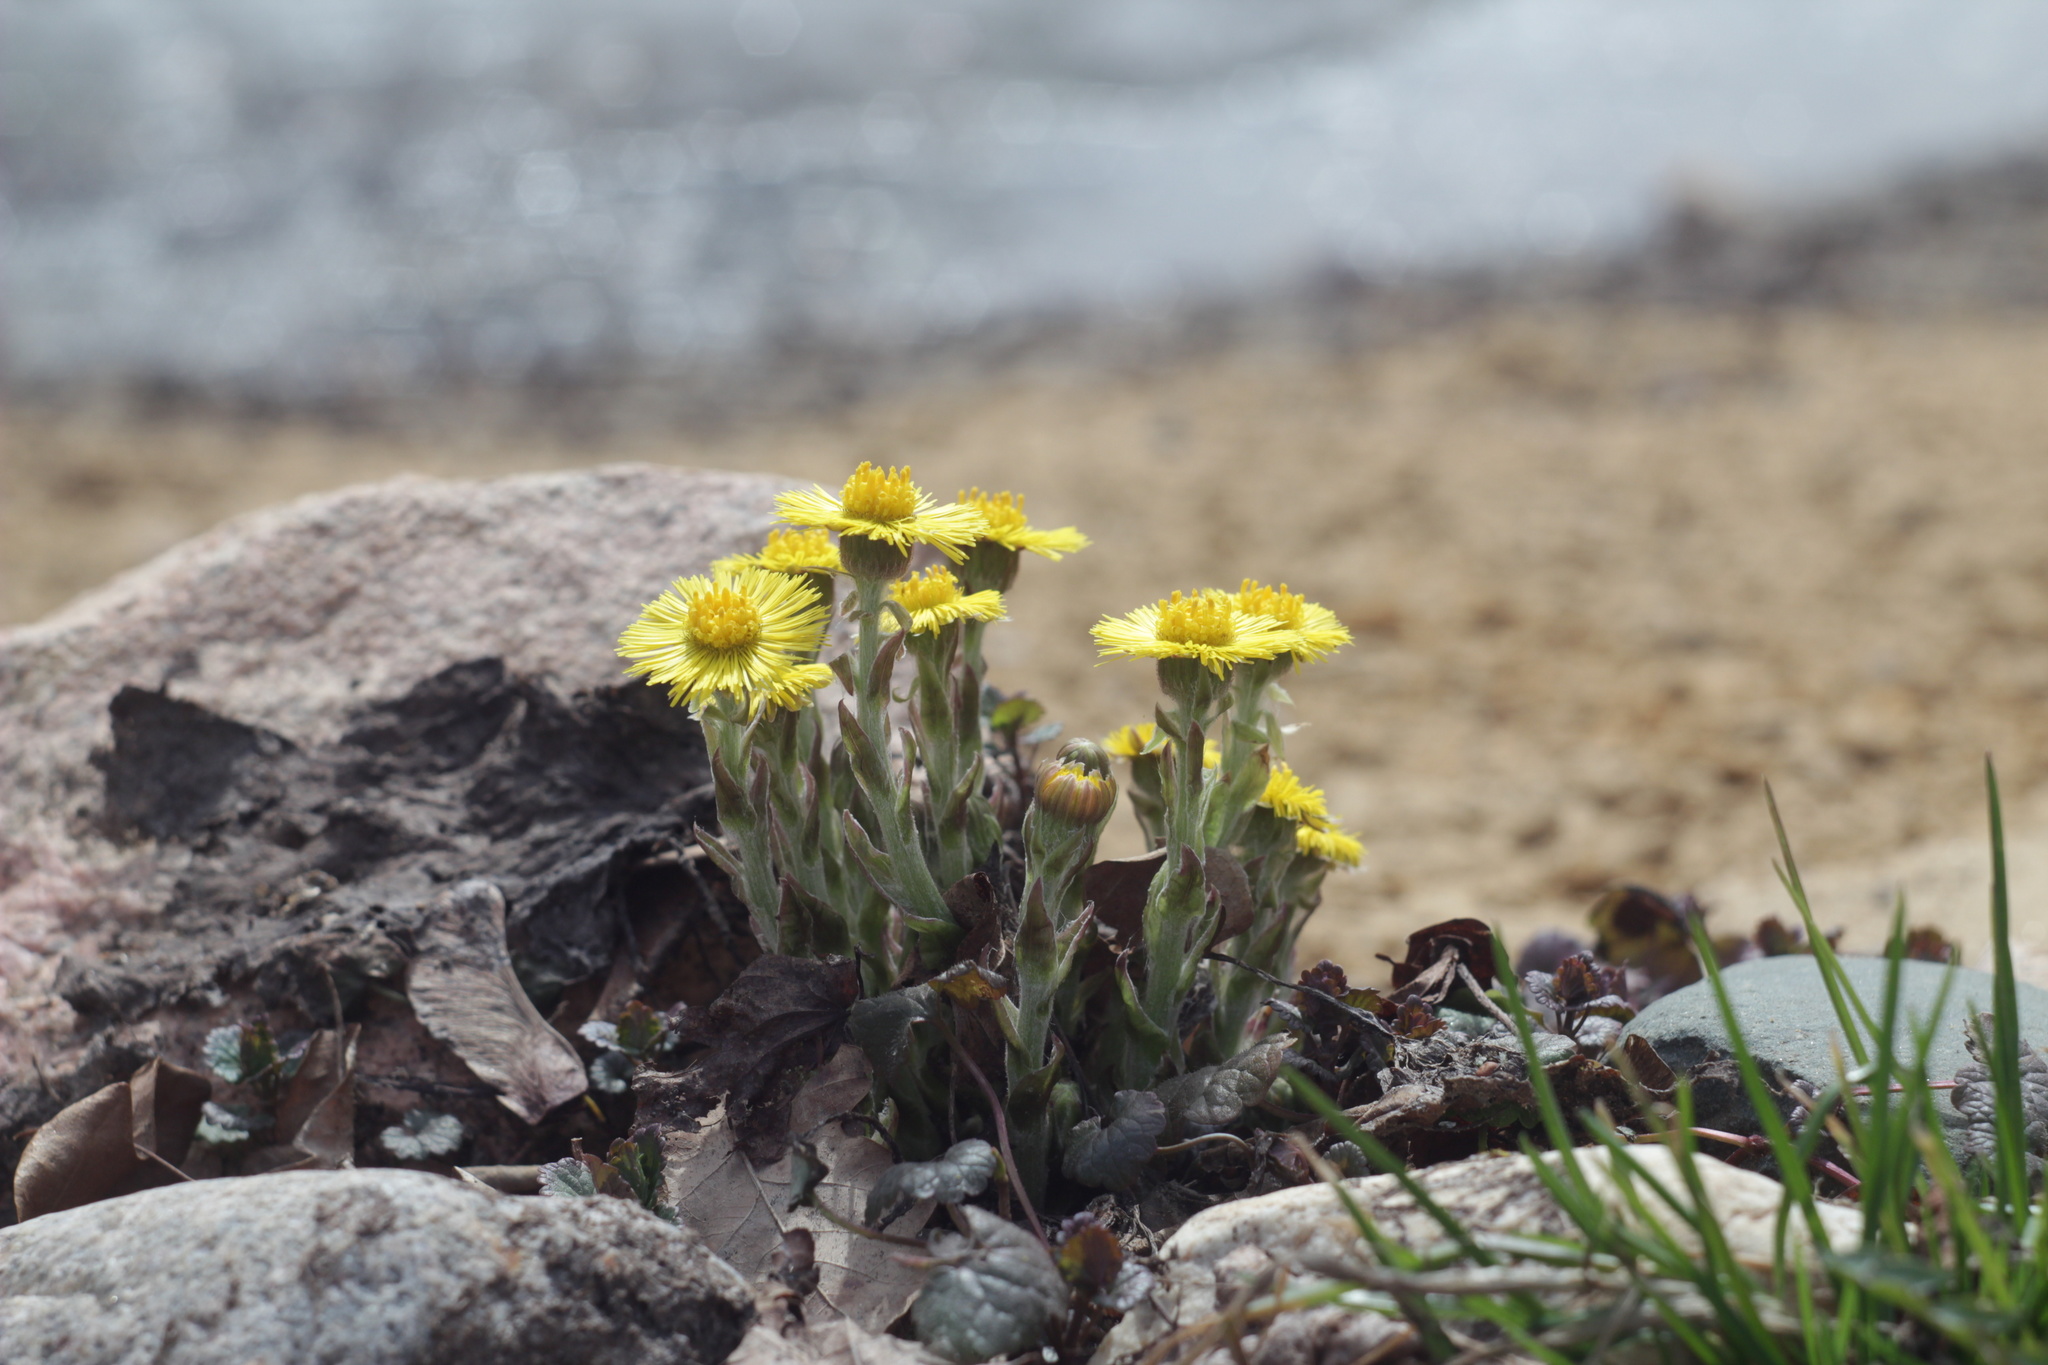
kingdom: Plantae
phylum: Tracheophyta
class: Magnoliopsida
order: Asterales
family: Asteraceae
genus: Tussilago
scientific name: Tussilago farfara
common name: Coltsfoot
